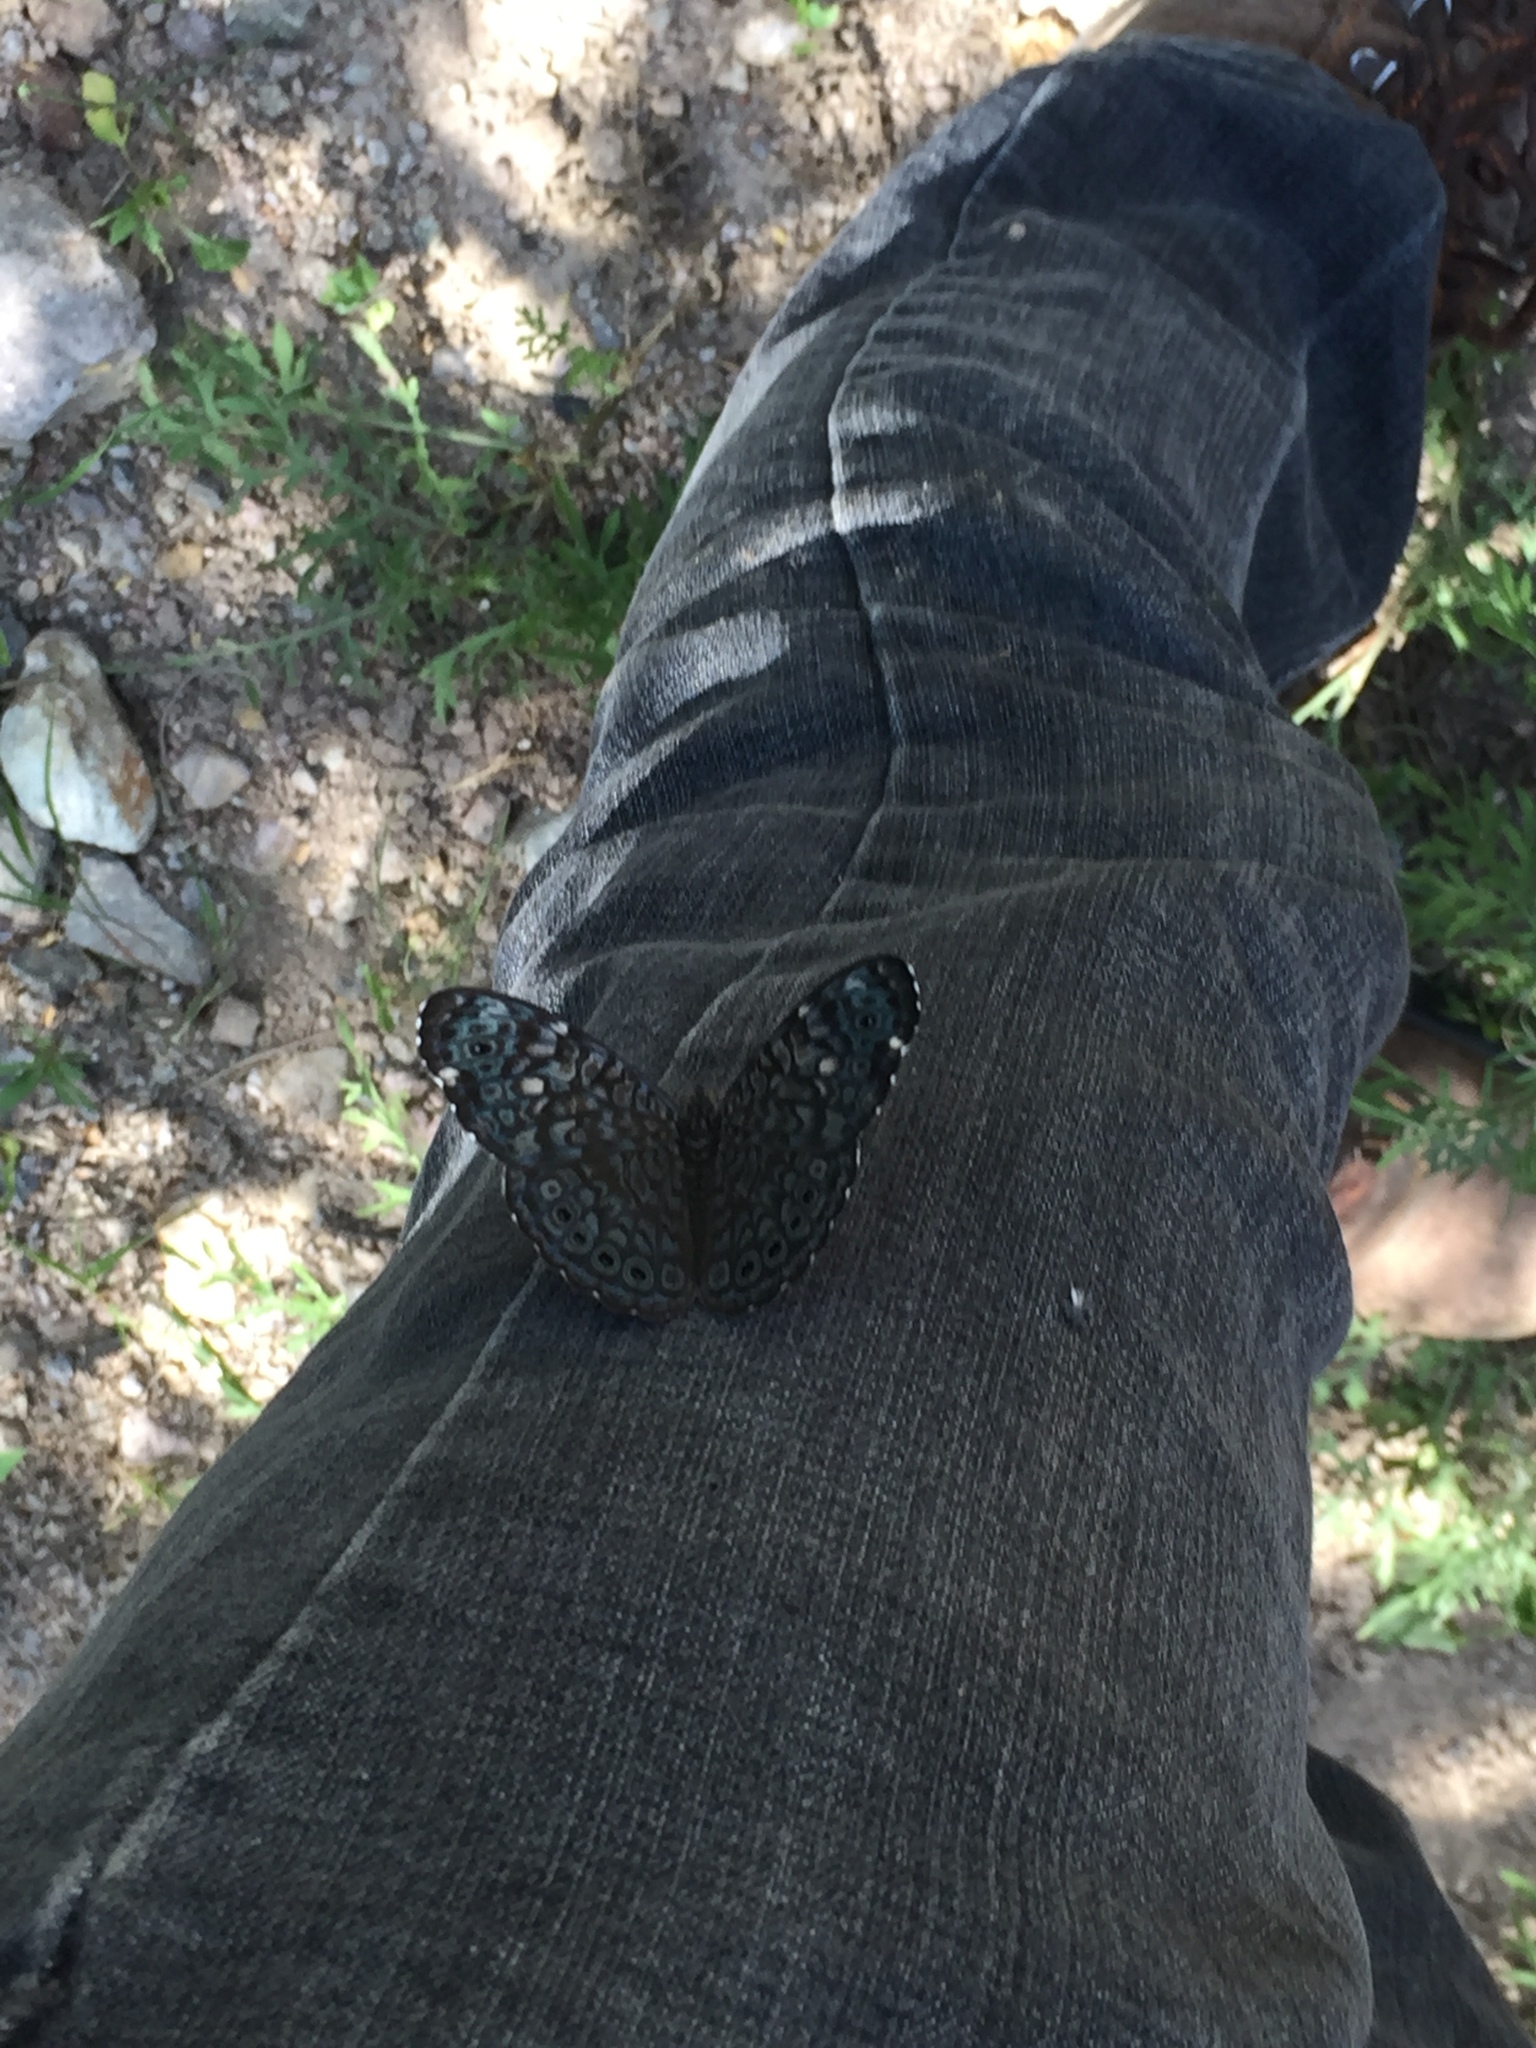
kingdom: Animalia
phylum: Arthropoda
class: Insecta
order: Lepidoptera
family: Nymphalidae
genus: Hamadryas
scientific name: Hamadryas lelaps
